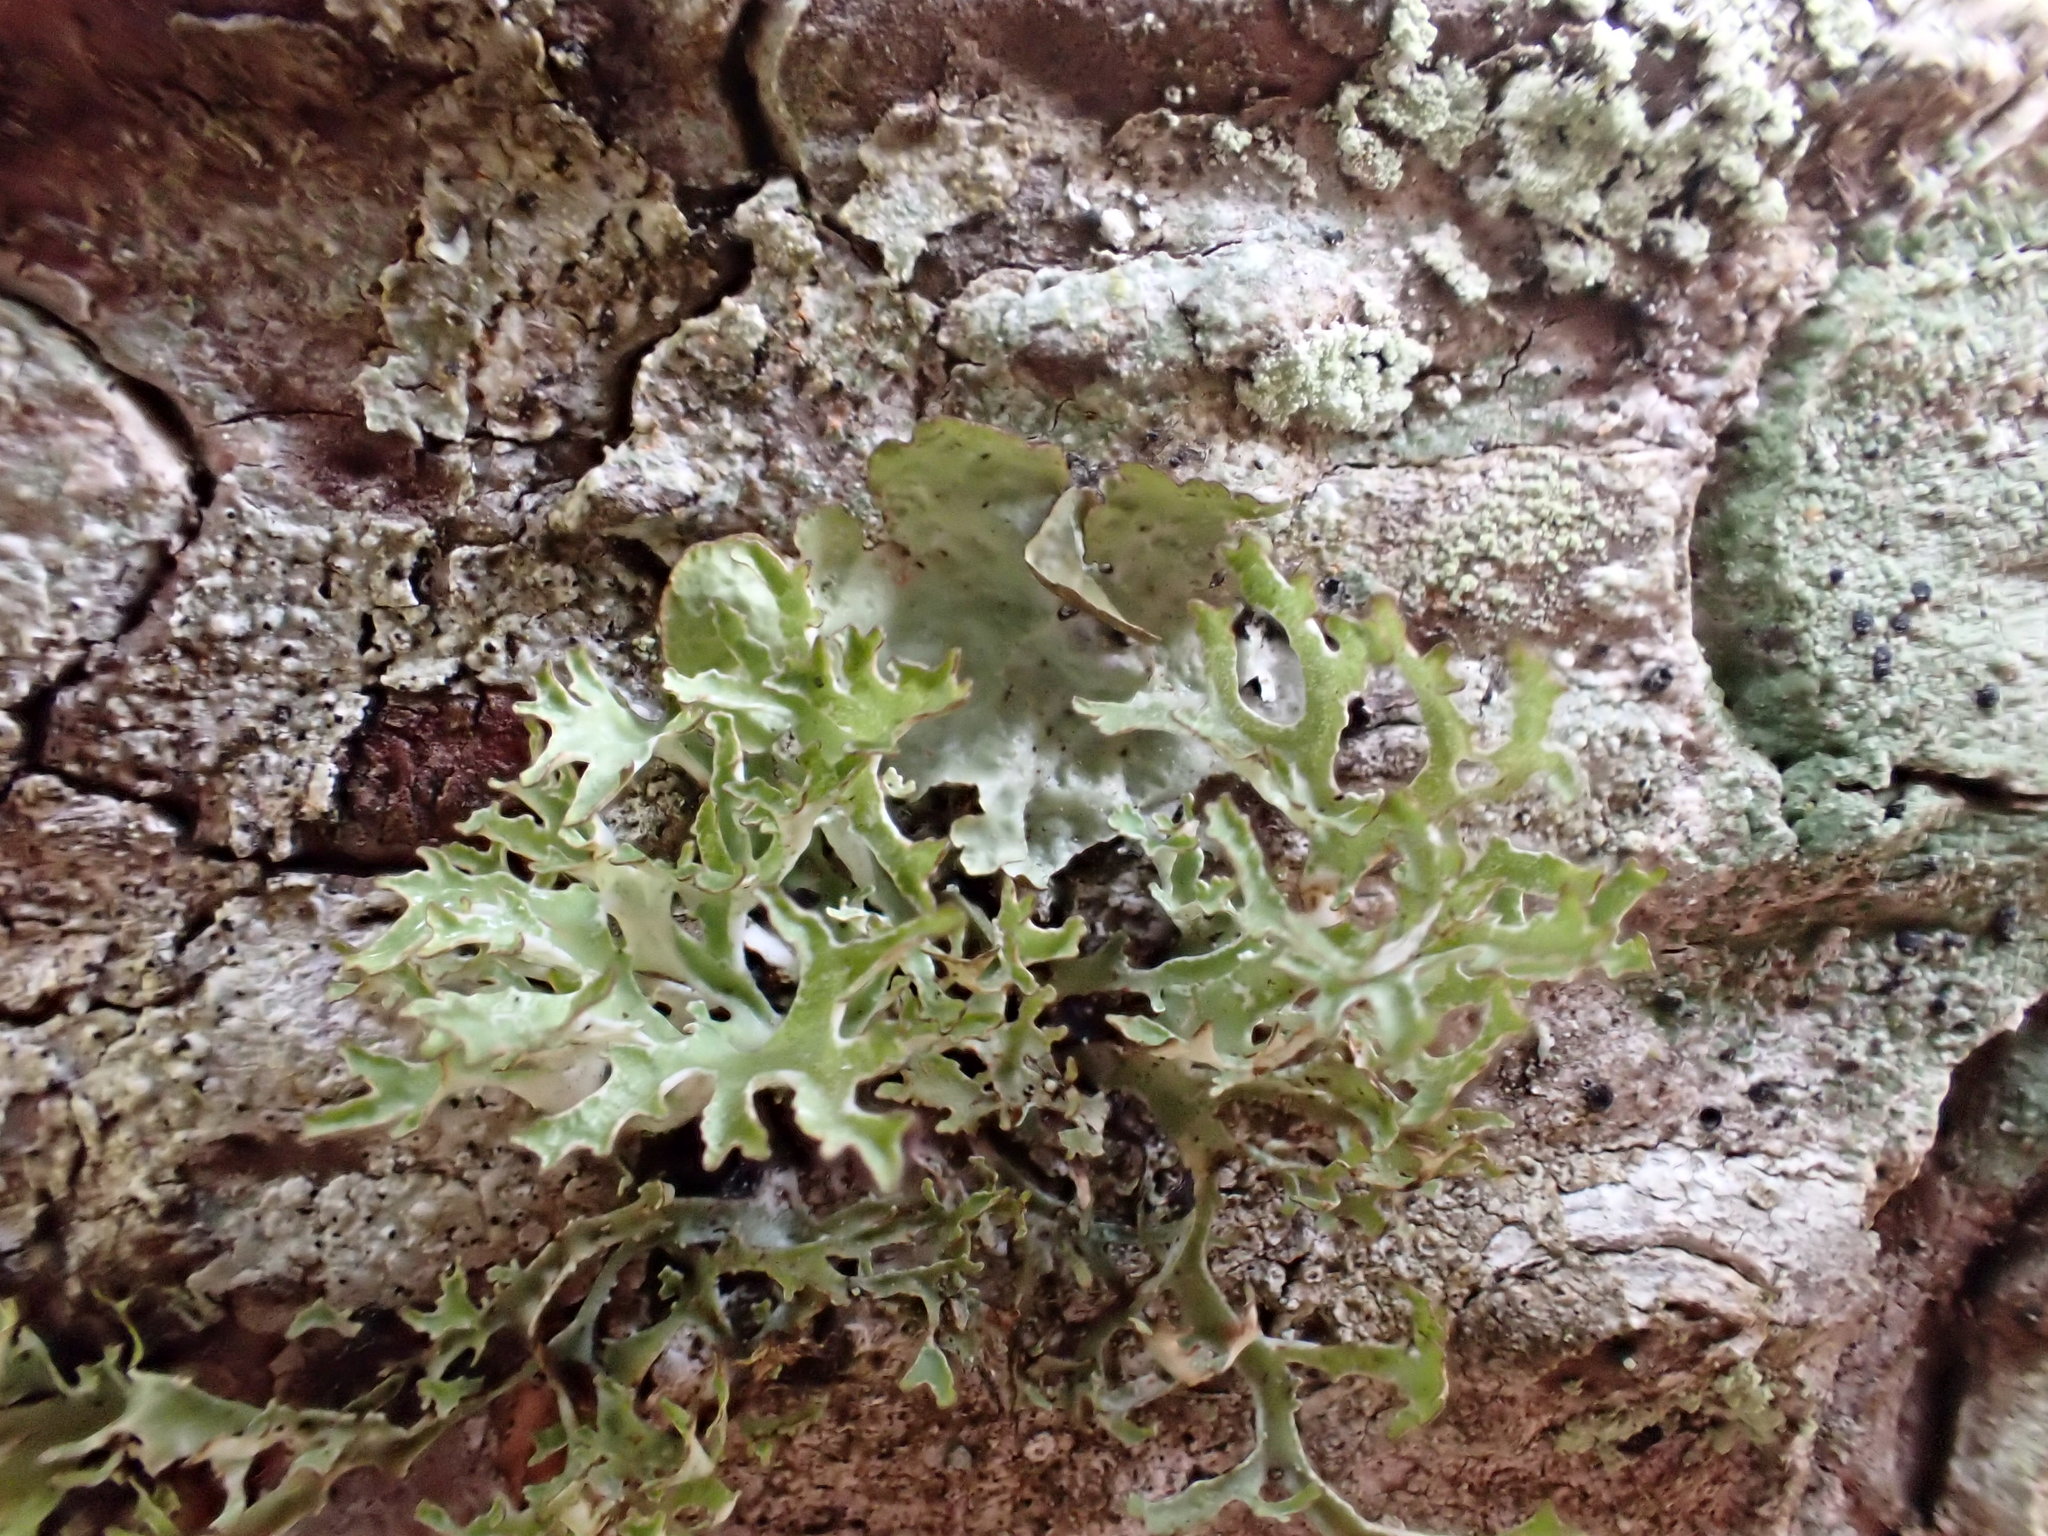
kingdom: Fungi
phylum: Ascomycota
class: Lecanoromycetes
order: Lecanorales
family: Parmeliaceae
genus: Evernia
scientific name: Evernia prunastri
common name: Oak moss
